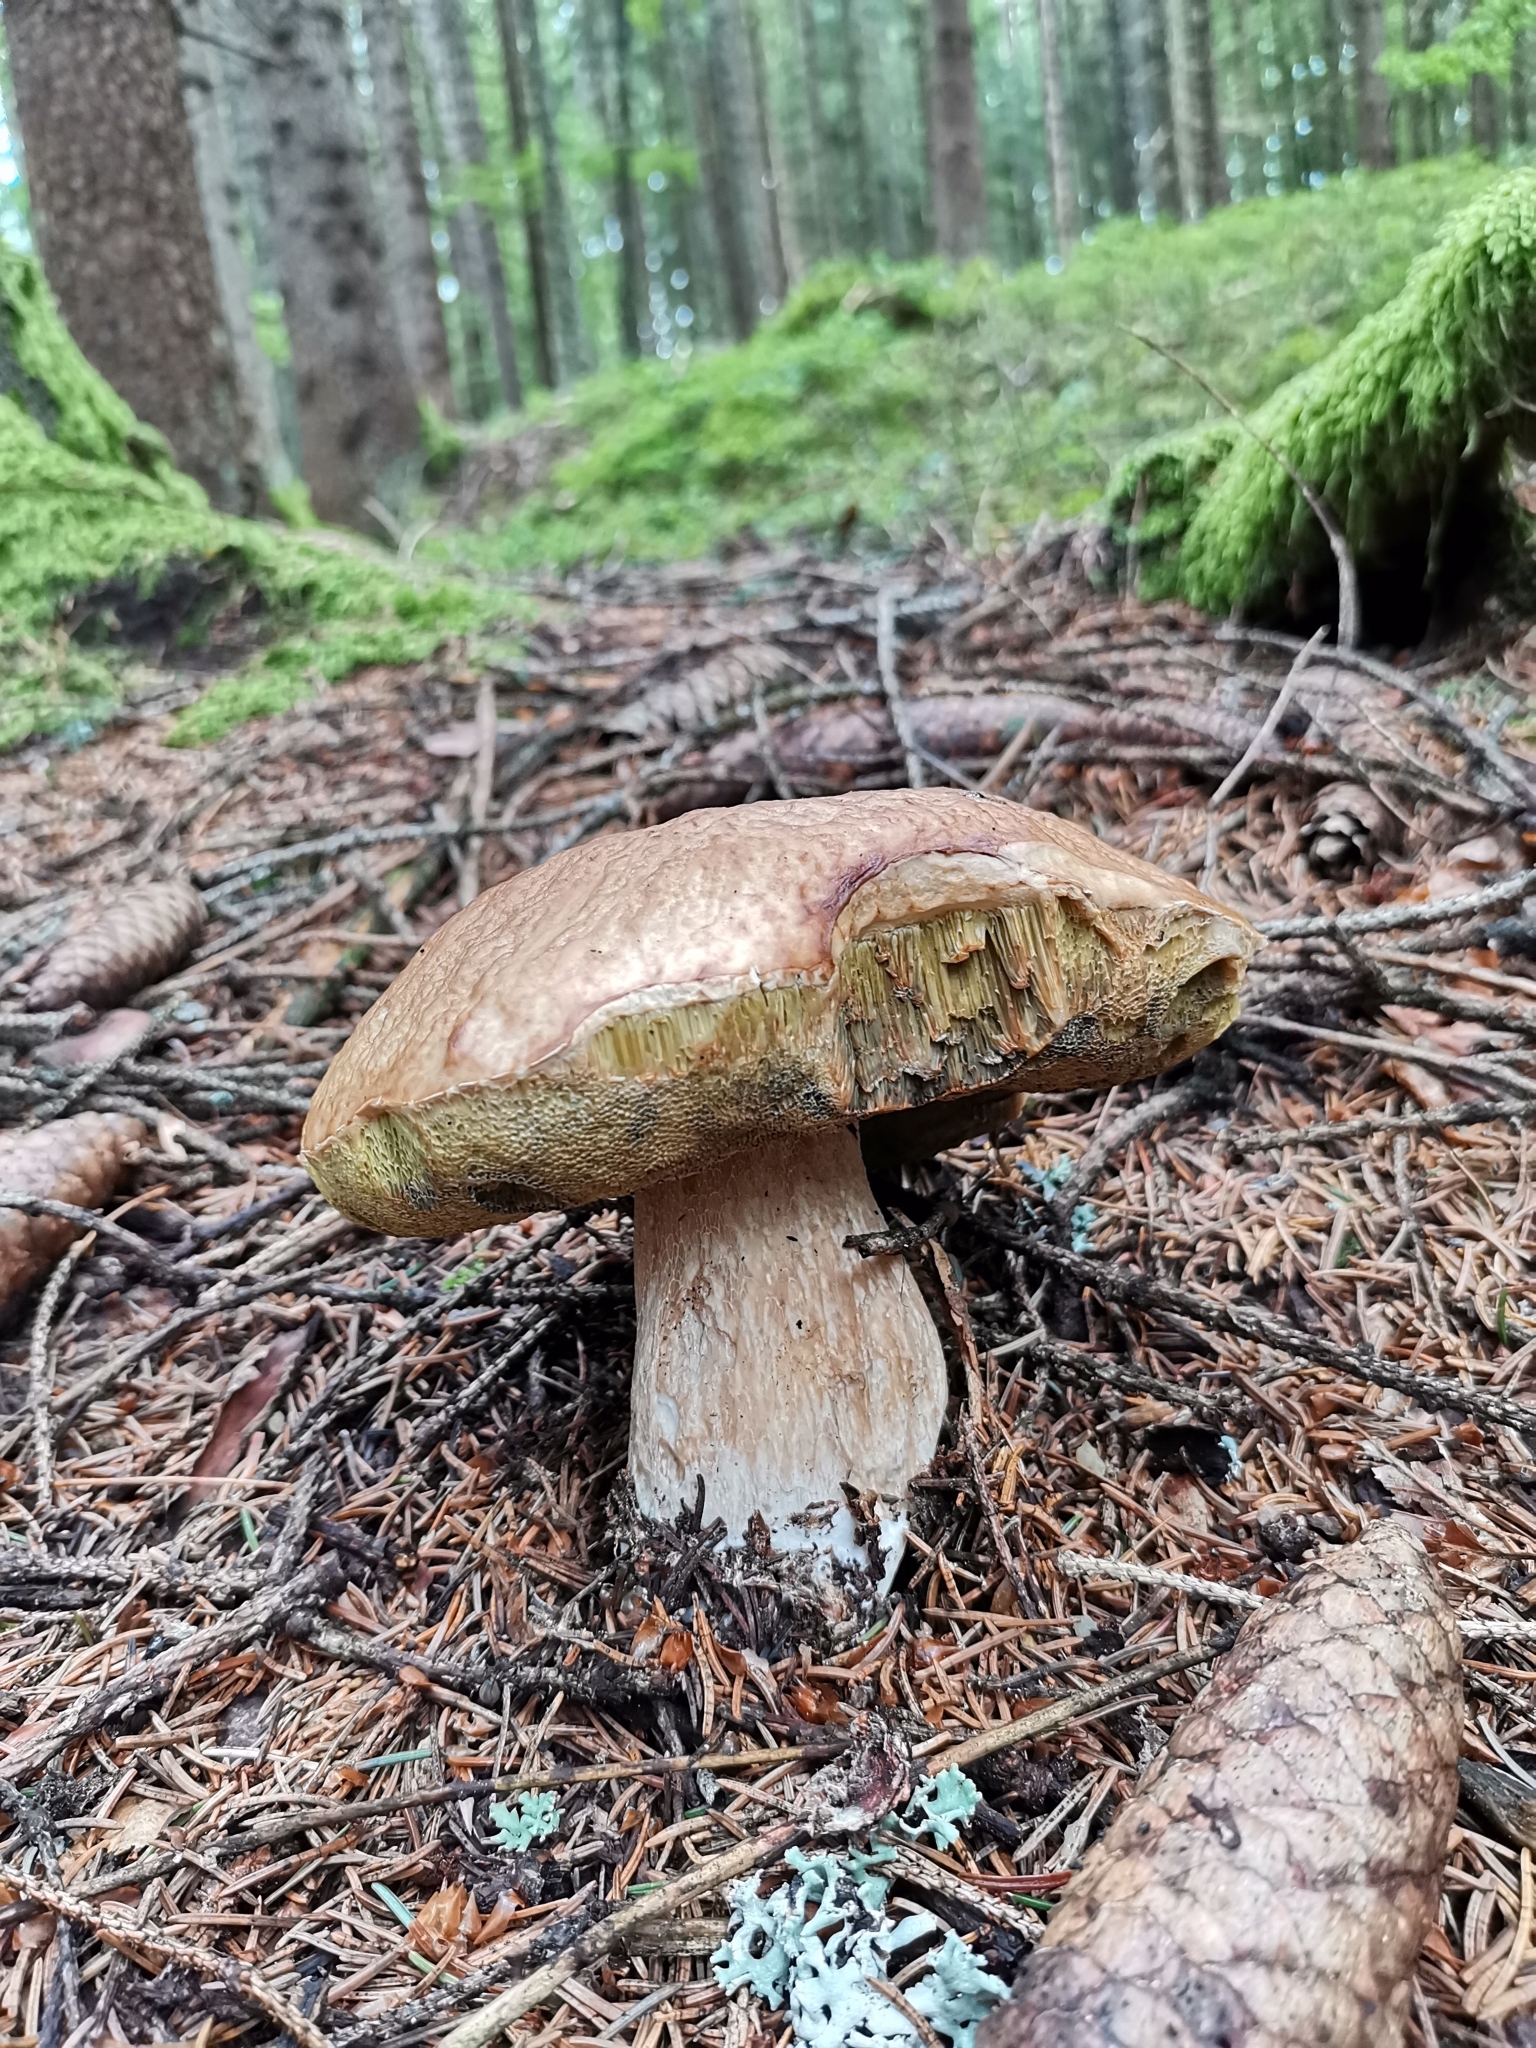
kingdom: Fungi
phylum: Basidiomycota
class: Agaricomycetes
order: Boletales
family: Boletaceae
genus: Boletus
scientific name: Boletus edulis
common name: Cep
